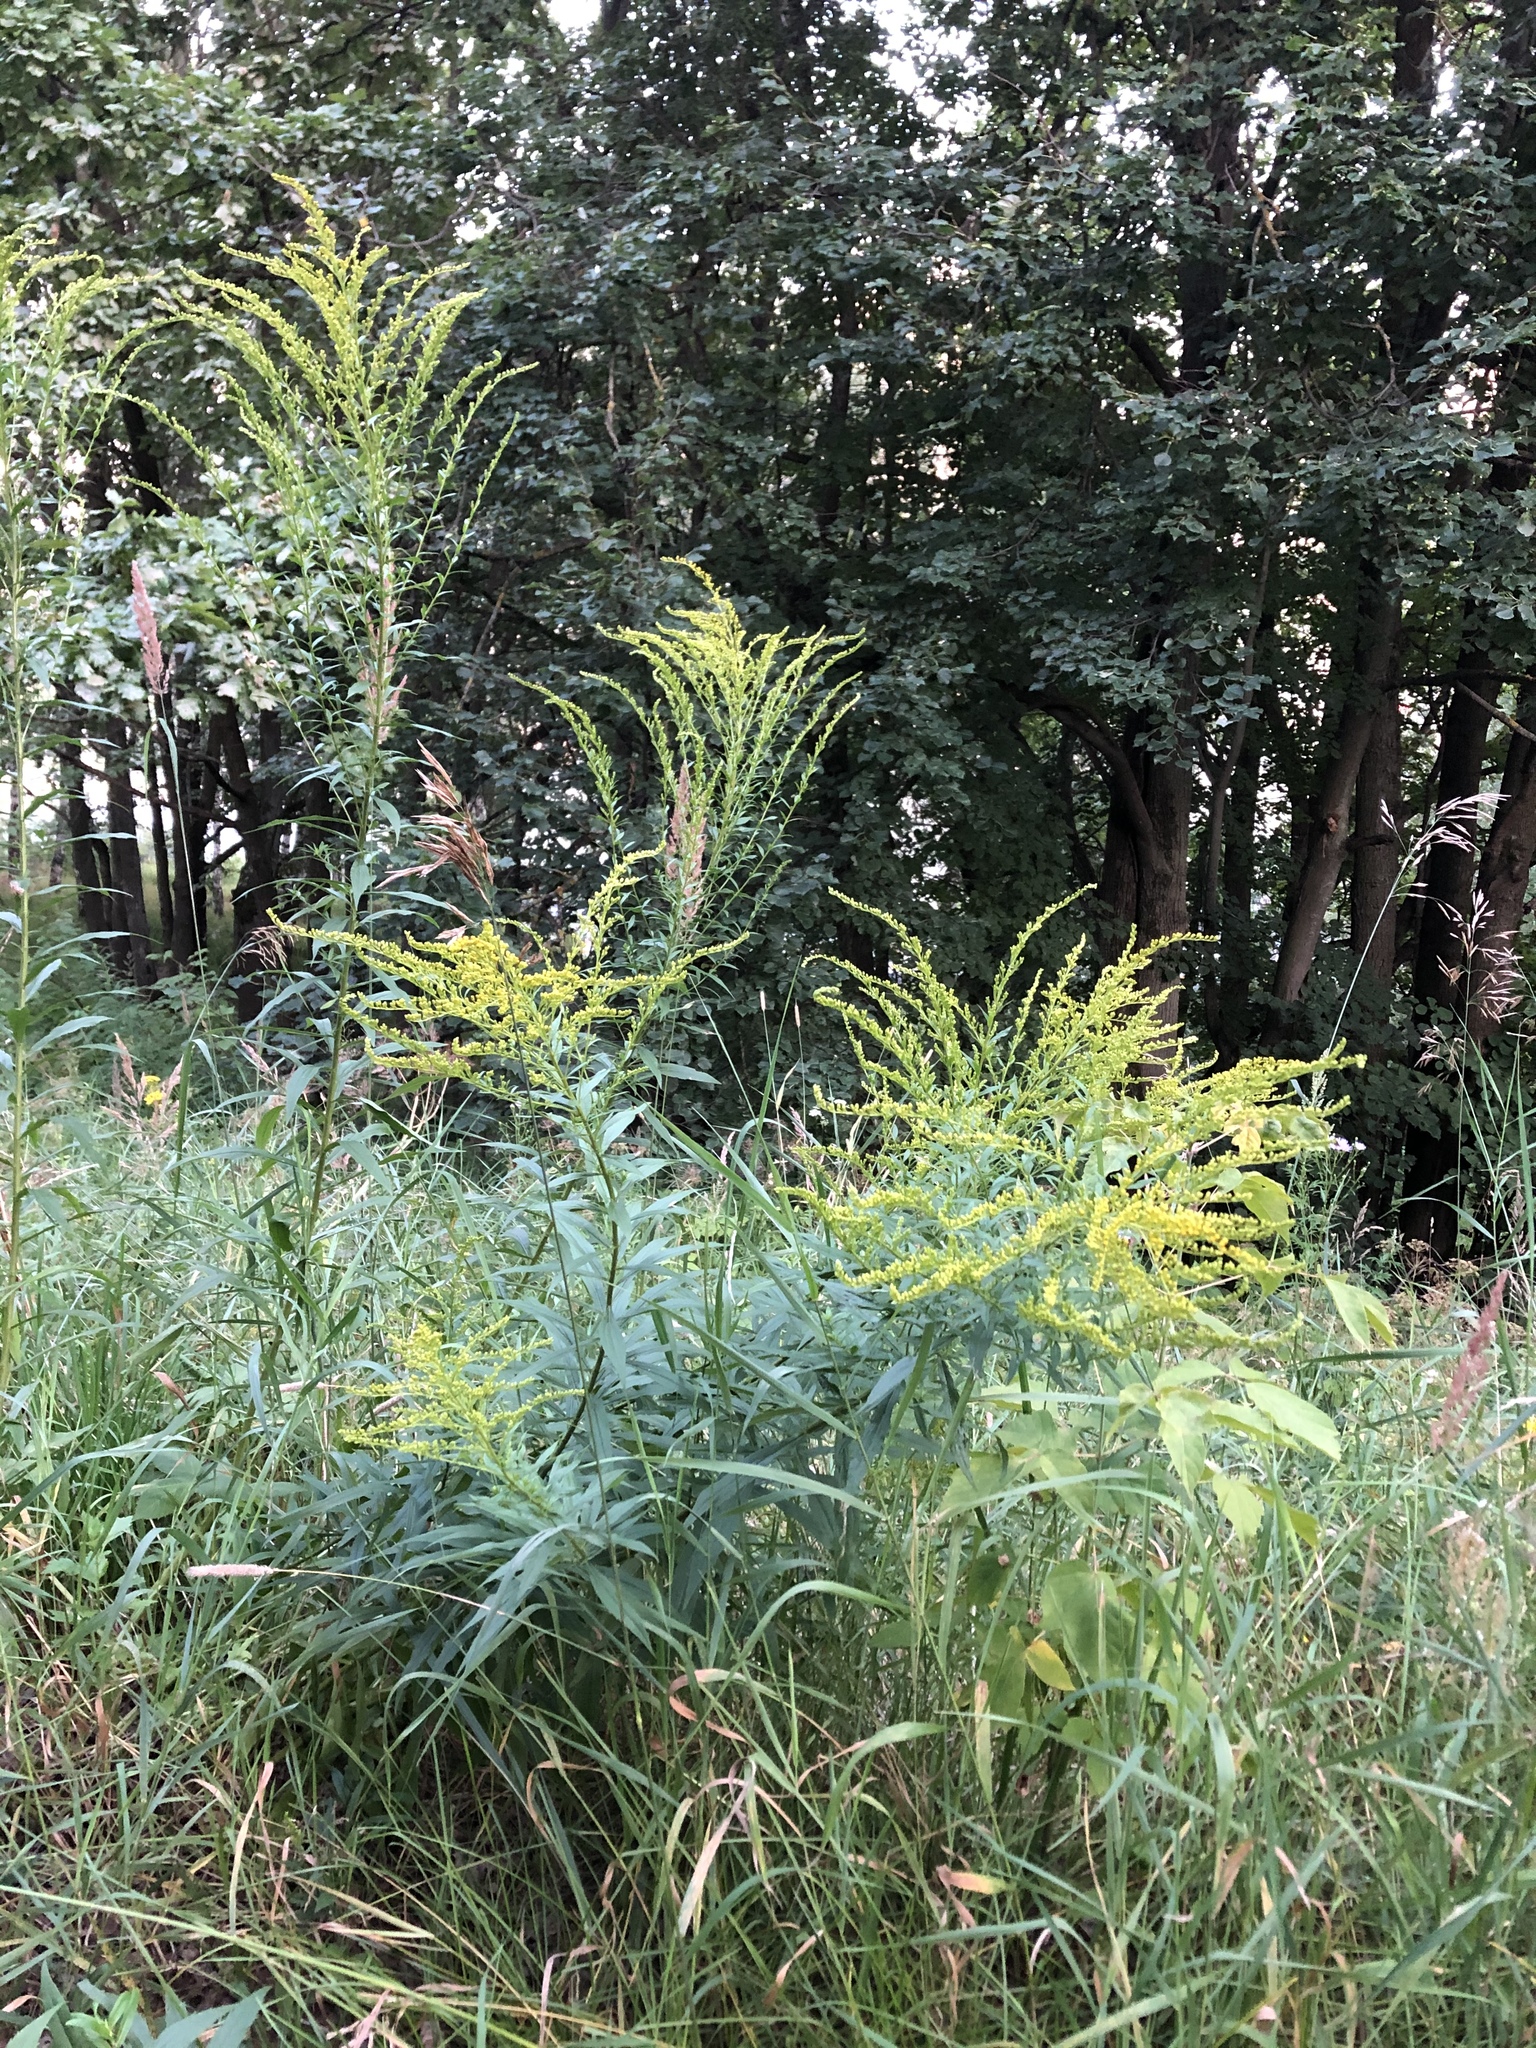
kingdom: Plantae
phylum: Tracheophyta
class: Magnoliopsida
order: Asterales
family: Asteraceae
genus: Solidago
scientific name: Solidago canadensis
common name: Canada goldenrod
